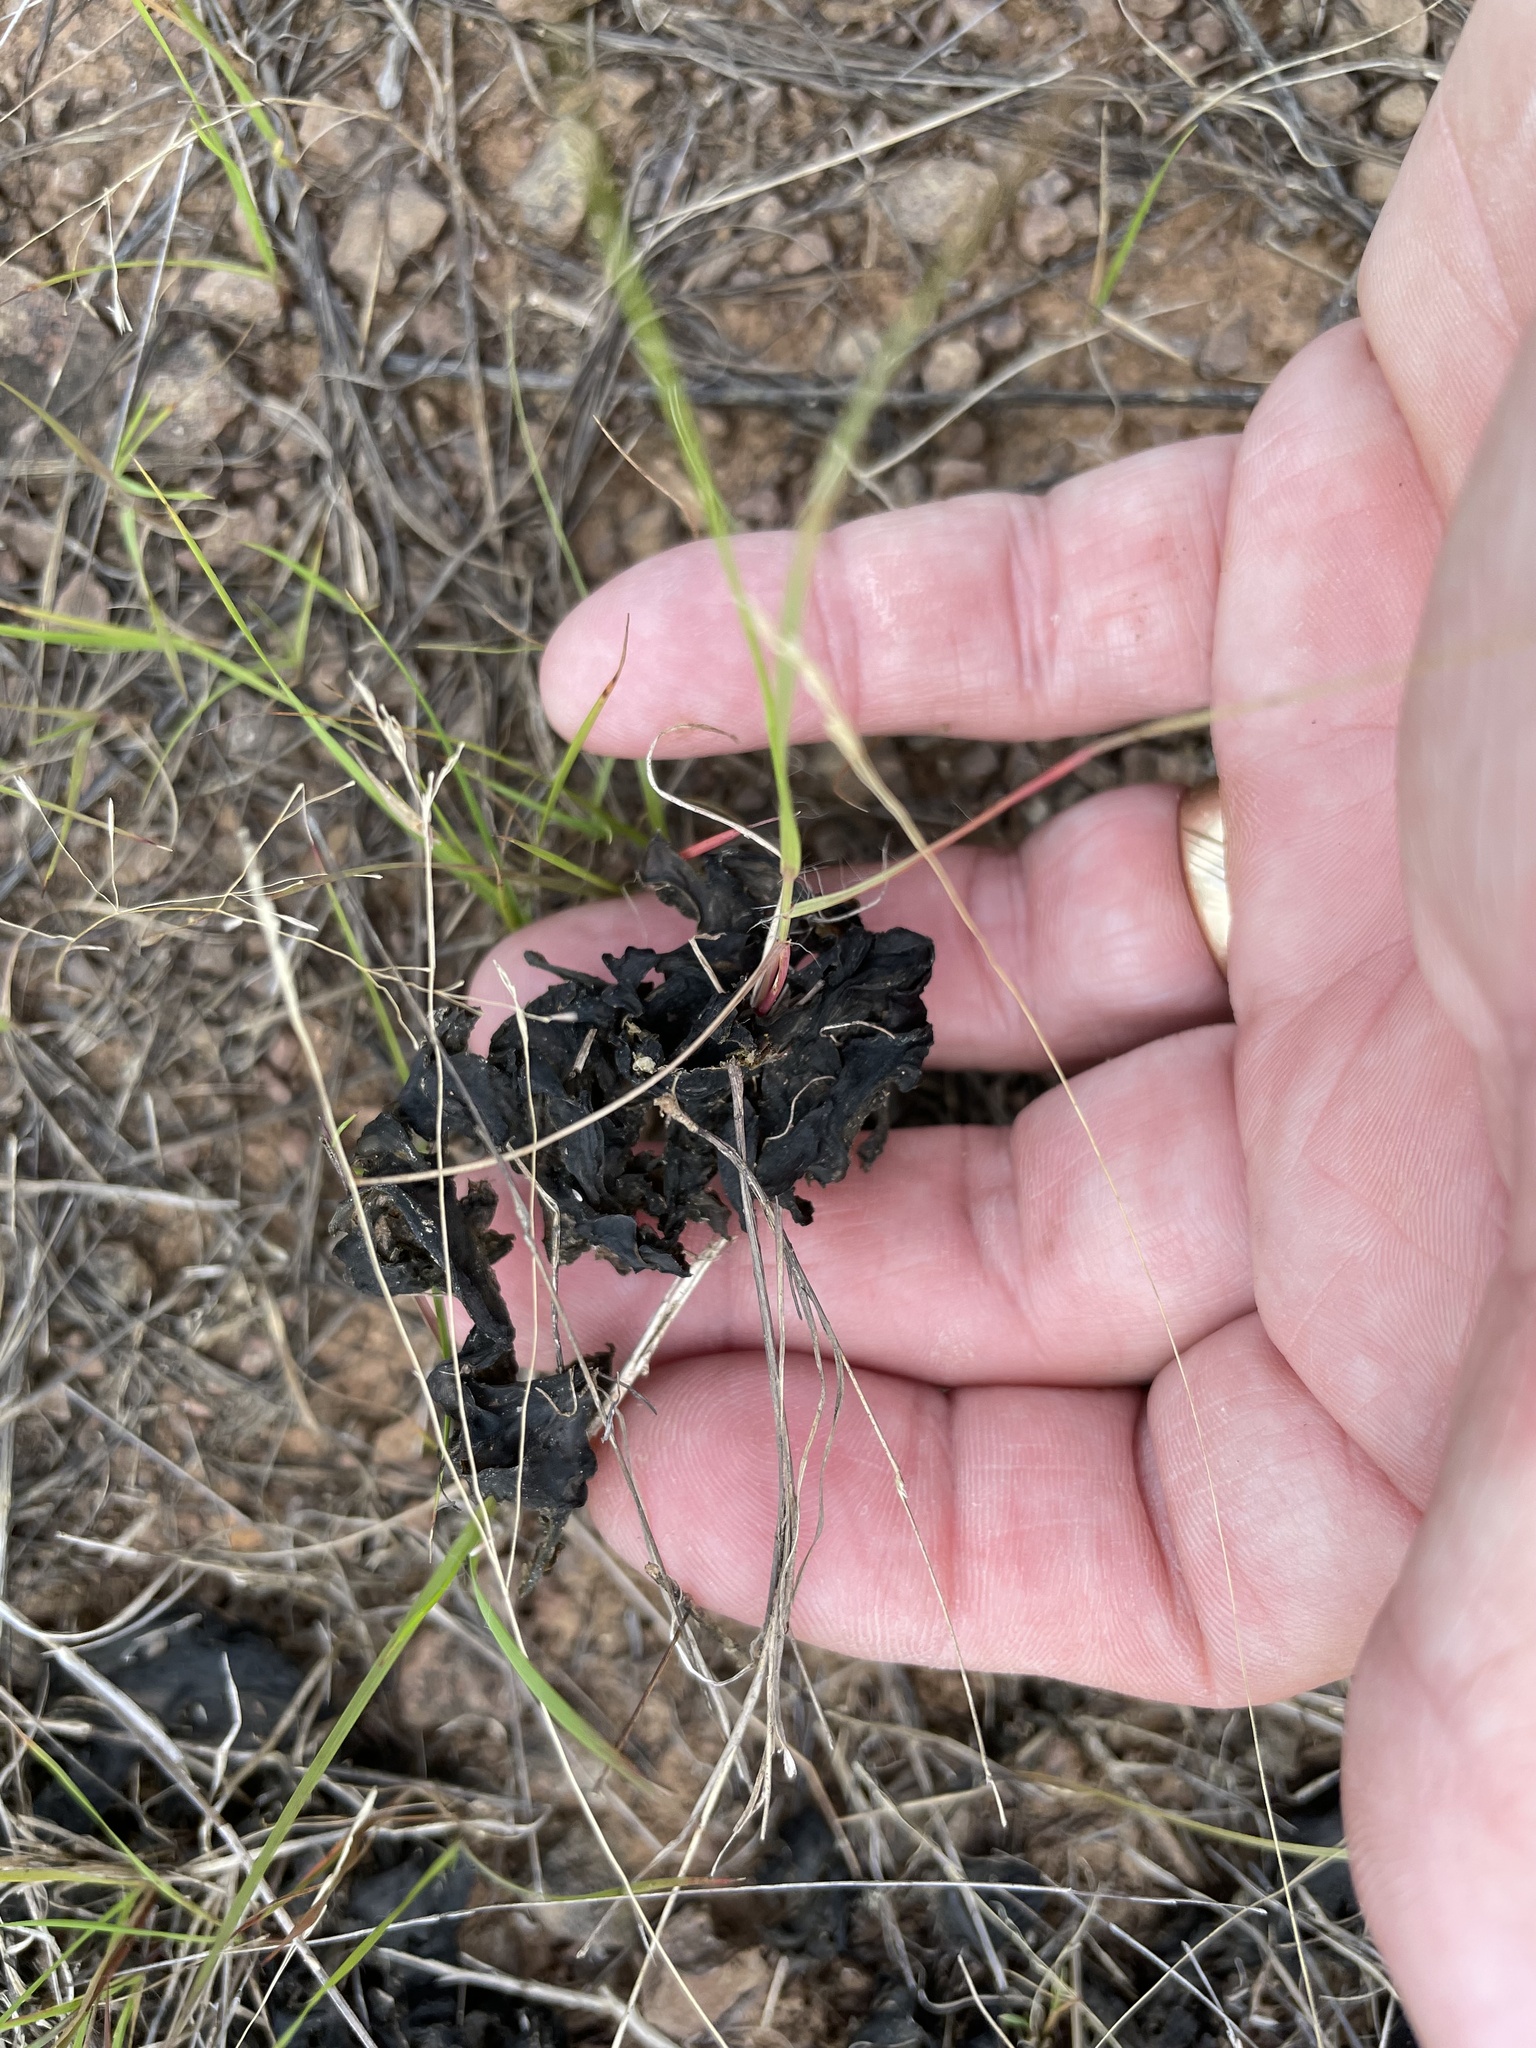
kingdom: Bacteria
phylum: Cyanobacteria
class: Cyanobacteriia
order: Cyanobacteriales
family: Nostocaceae
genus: Nostoc
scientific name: Nostoc commune
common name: Star jelly
